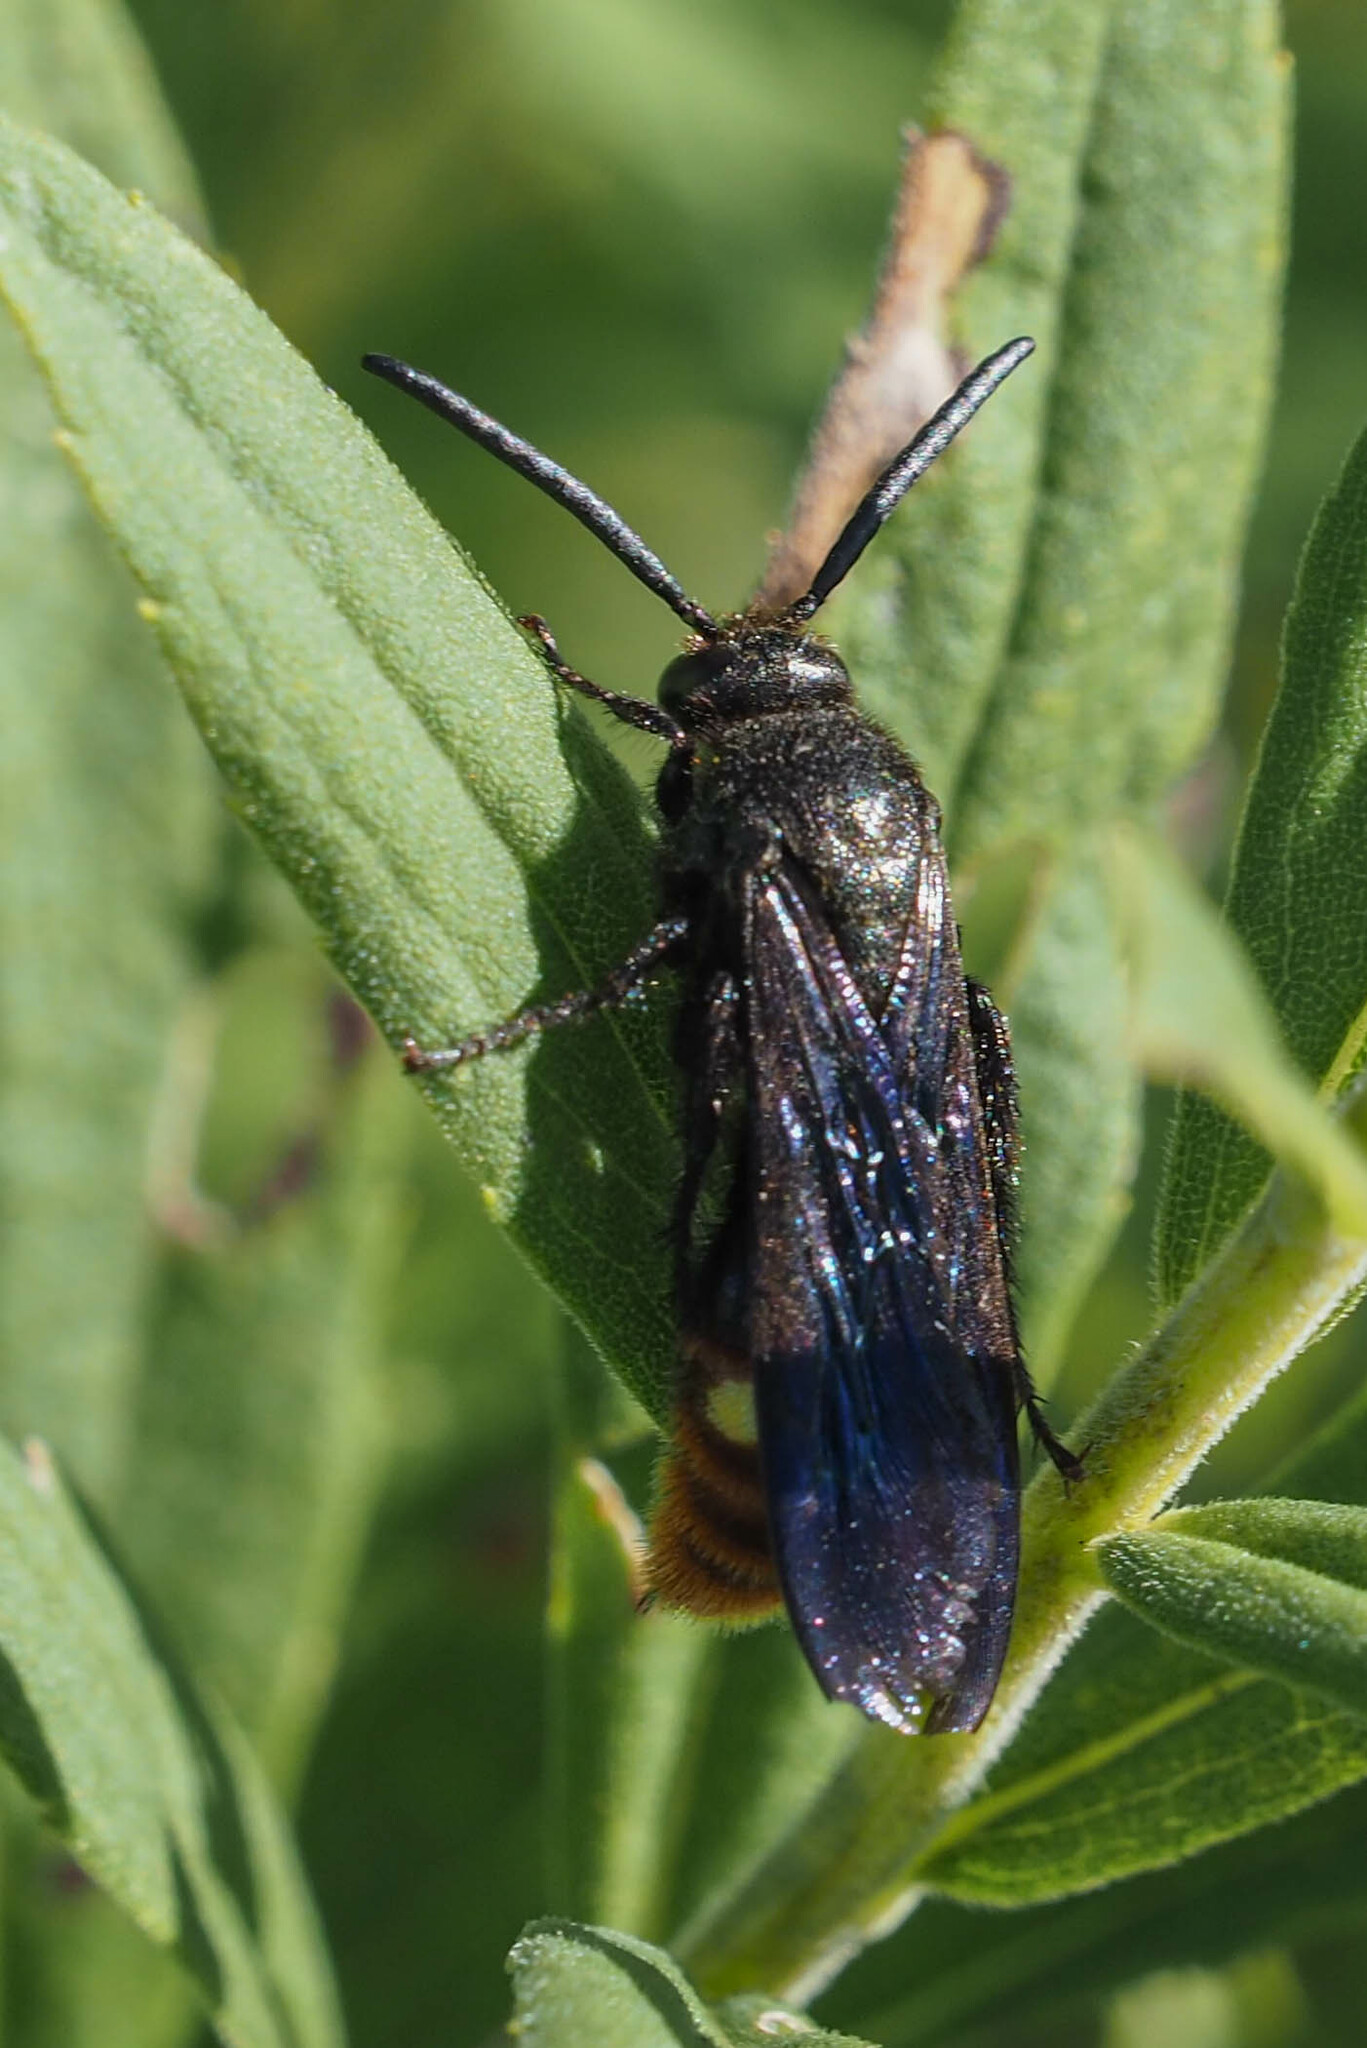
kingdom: Animalia
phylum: Arthropoda
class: Insecta
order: Hymenoptera
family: Scoliidae
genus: Scolia
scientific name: Scolia dubia
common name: Blue-winged scoliid wasp
